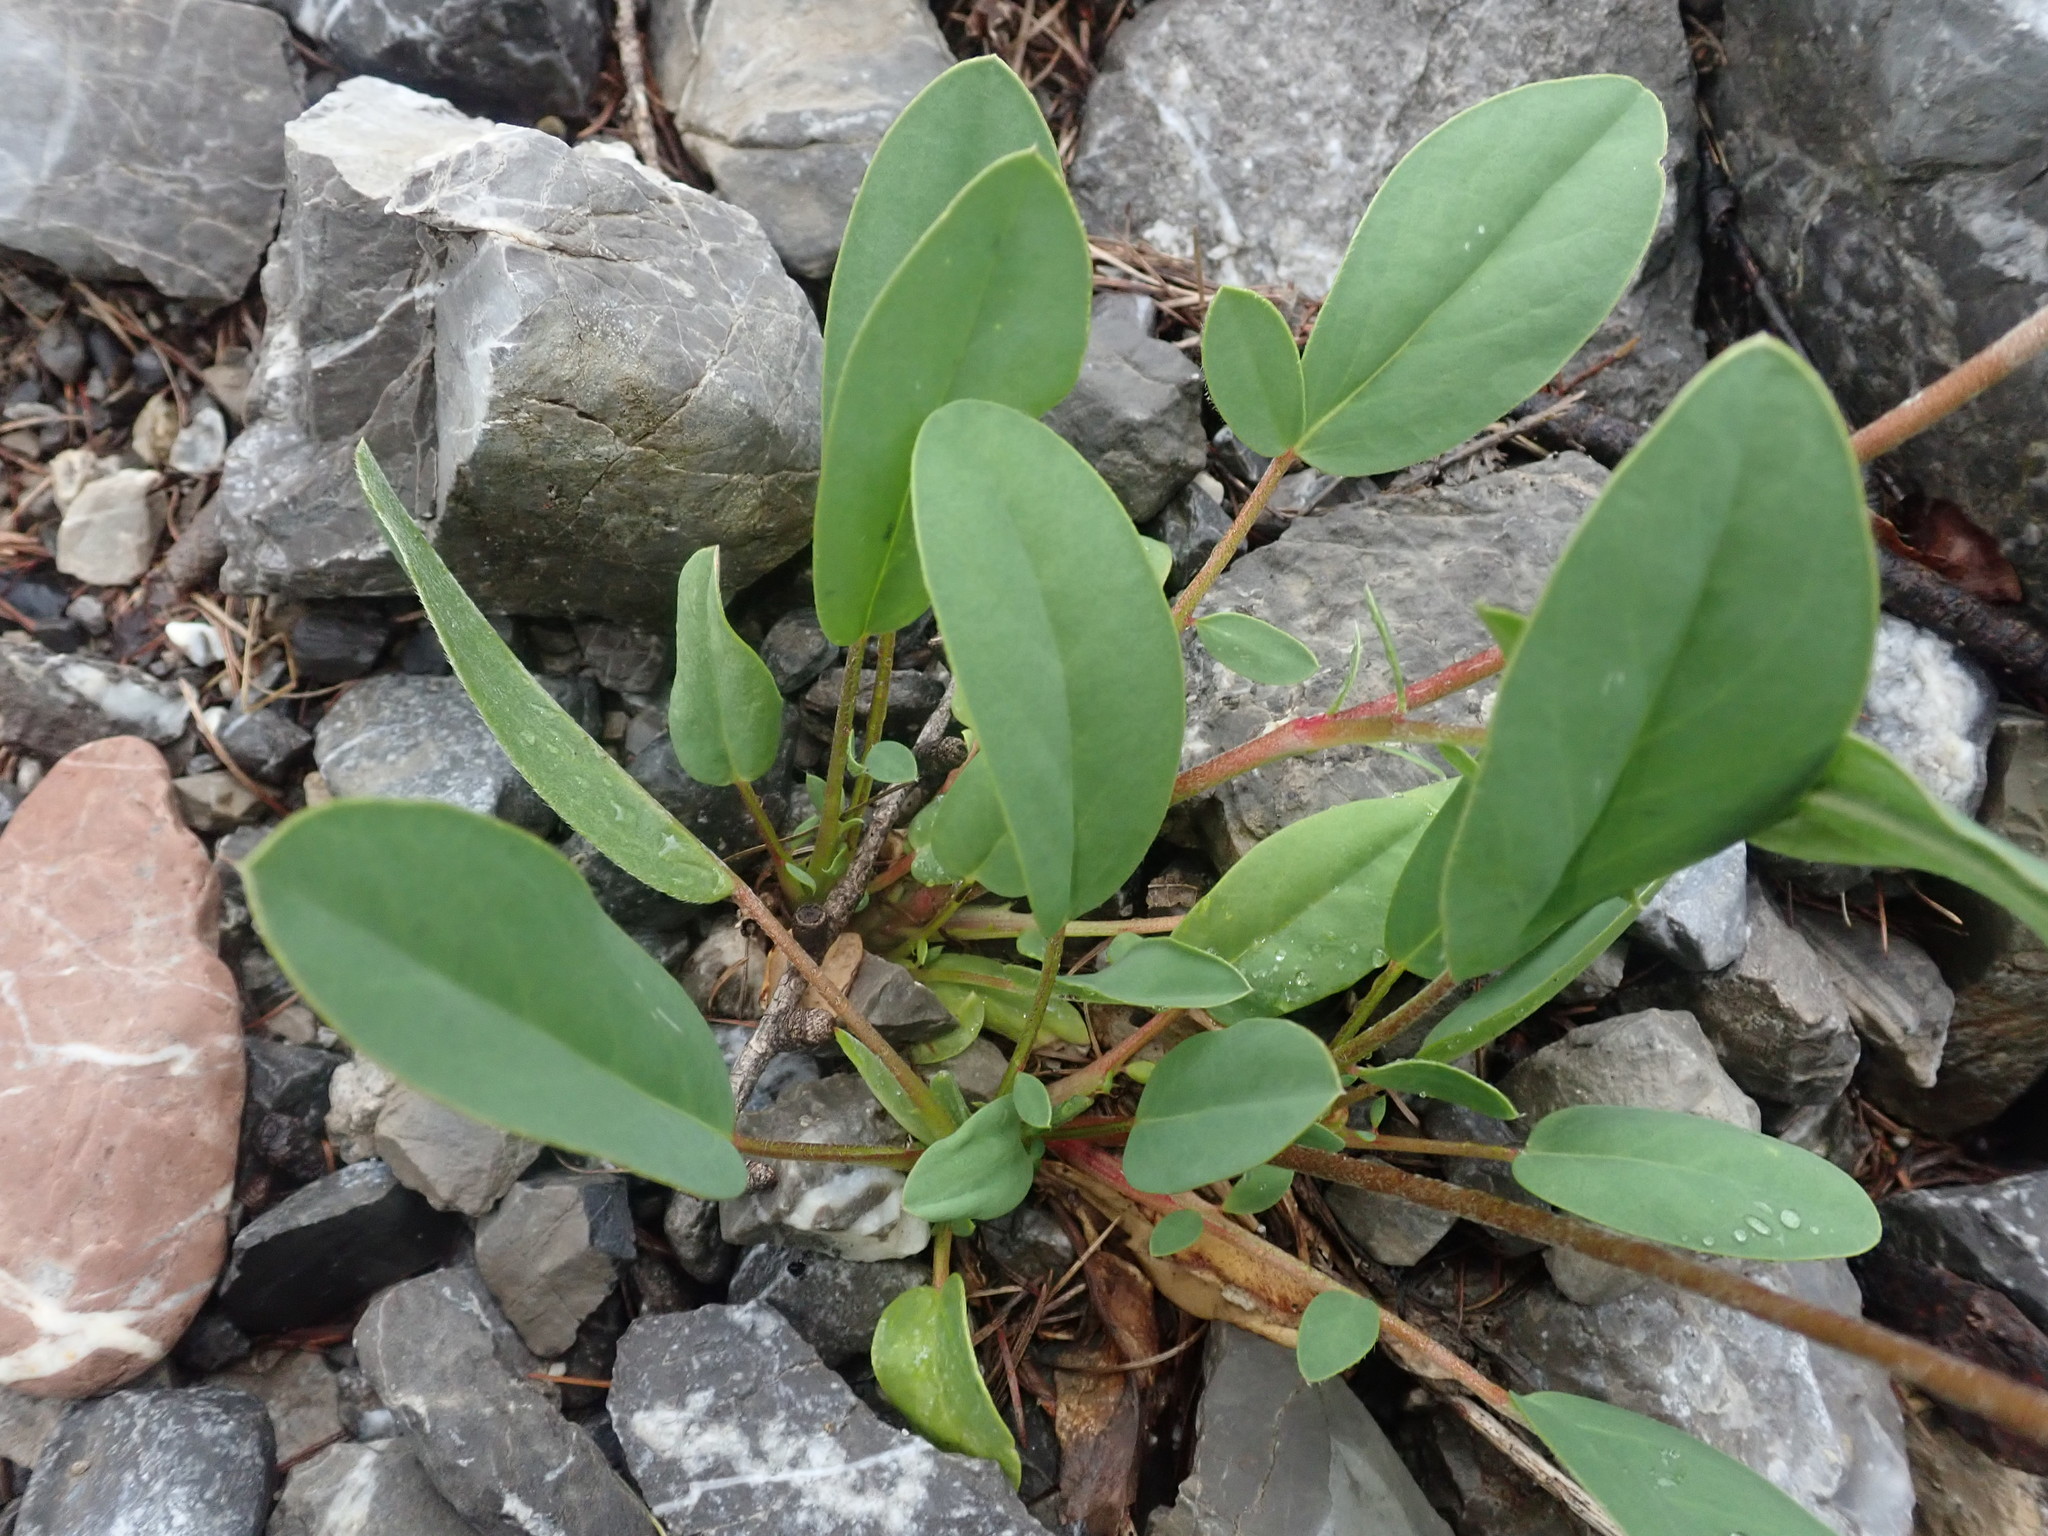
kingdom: Plantae
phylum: Tracheophyta
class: Magnoliopsida
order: Fabales
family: Fabaceae
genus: Anthyllis
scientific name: Anthyllis vulneraria
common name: Kidney vetch
